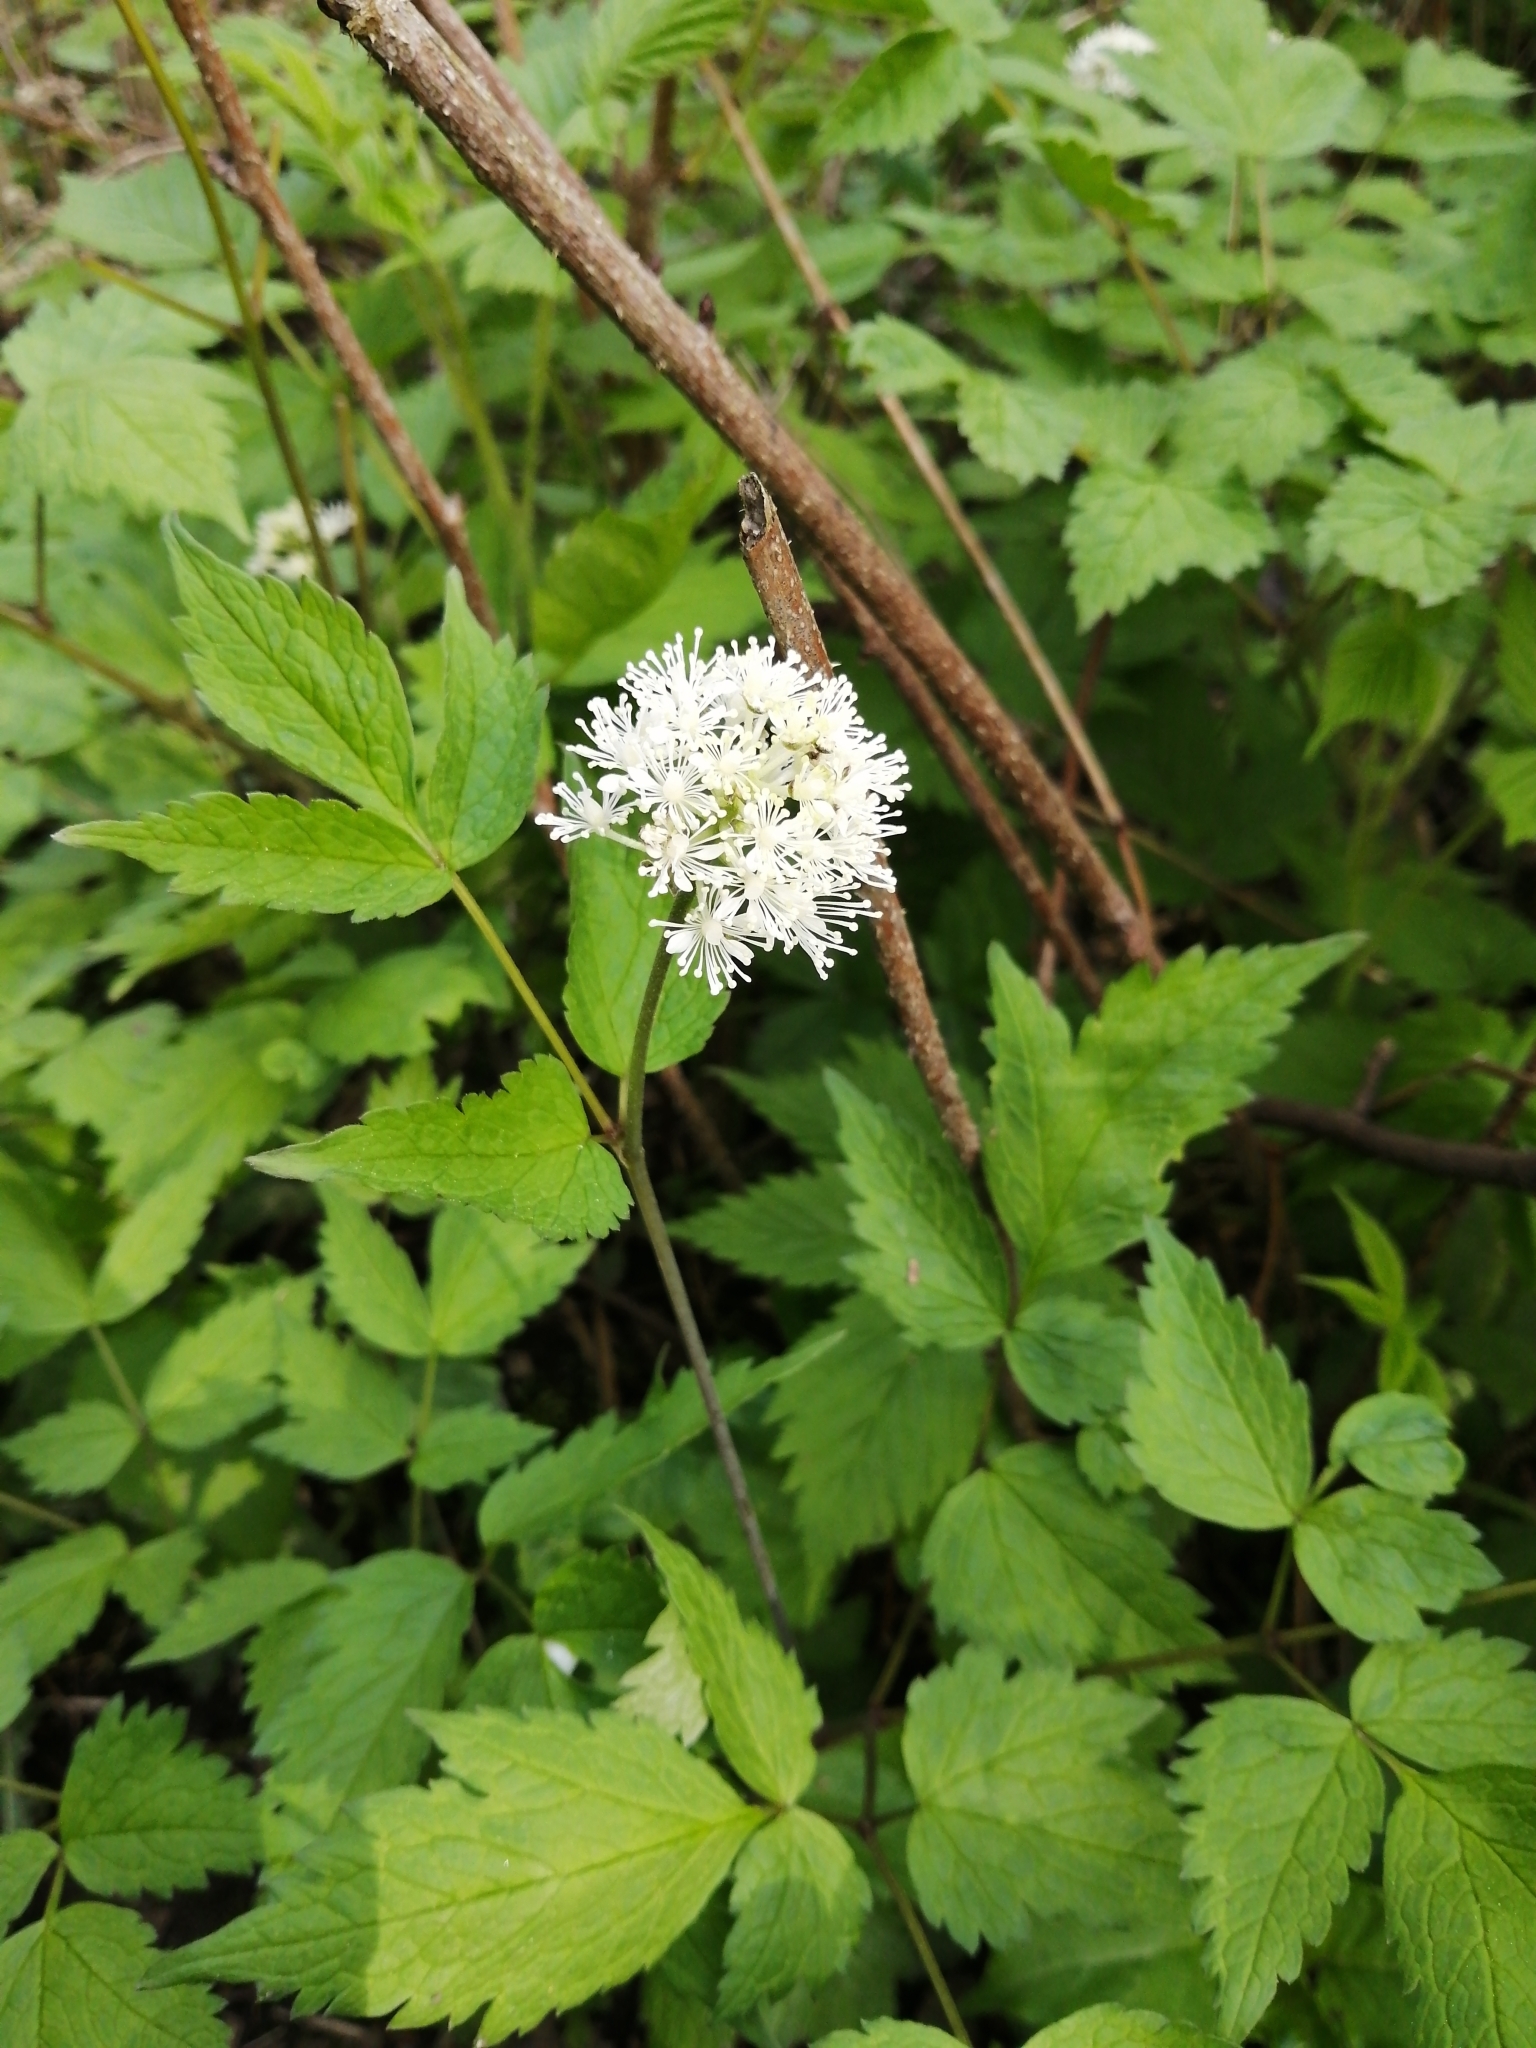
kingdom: Plantae
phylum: Tracheophyta
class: Magnoliopsida
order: Ranunculales
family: Ranunculaceae
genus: Actaea
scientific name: Actaea rubra
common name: Red baneberry
